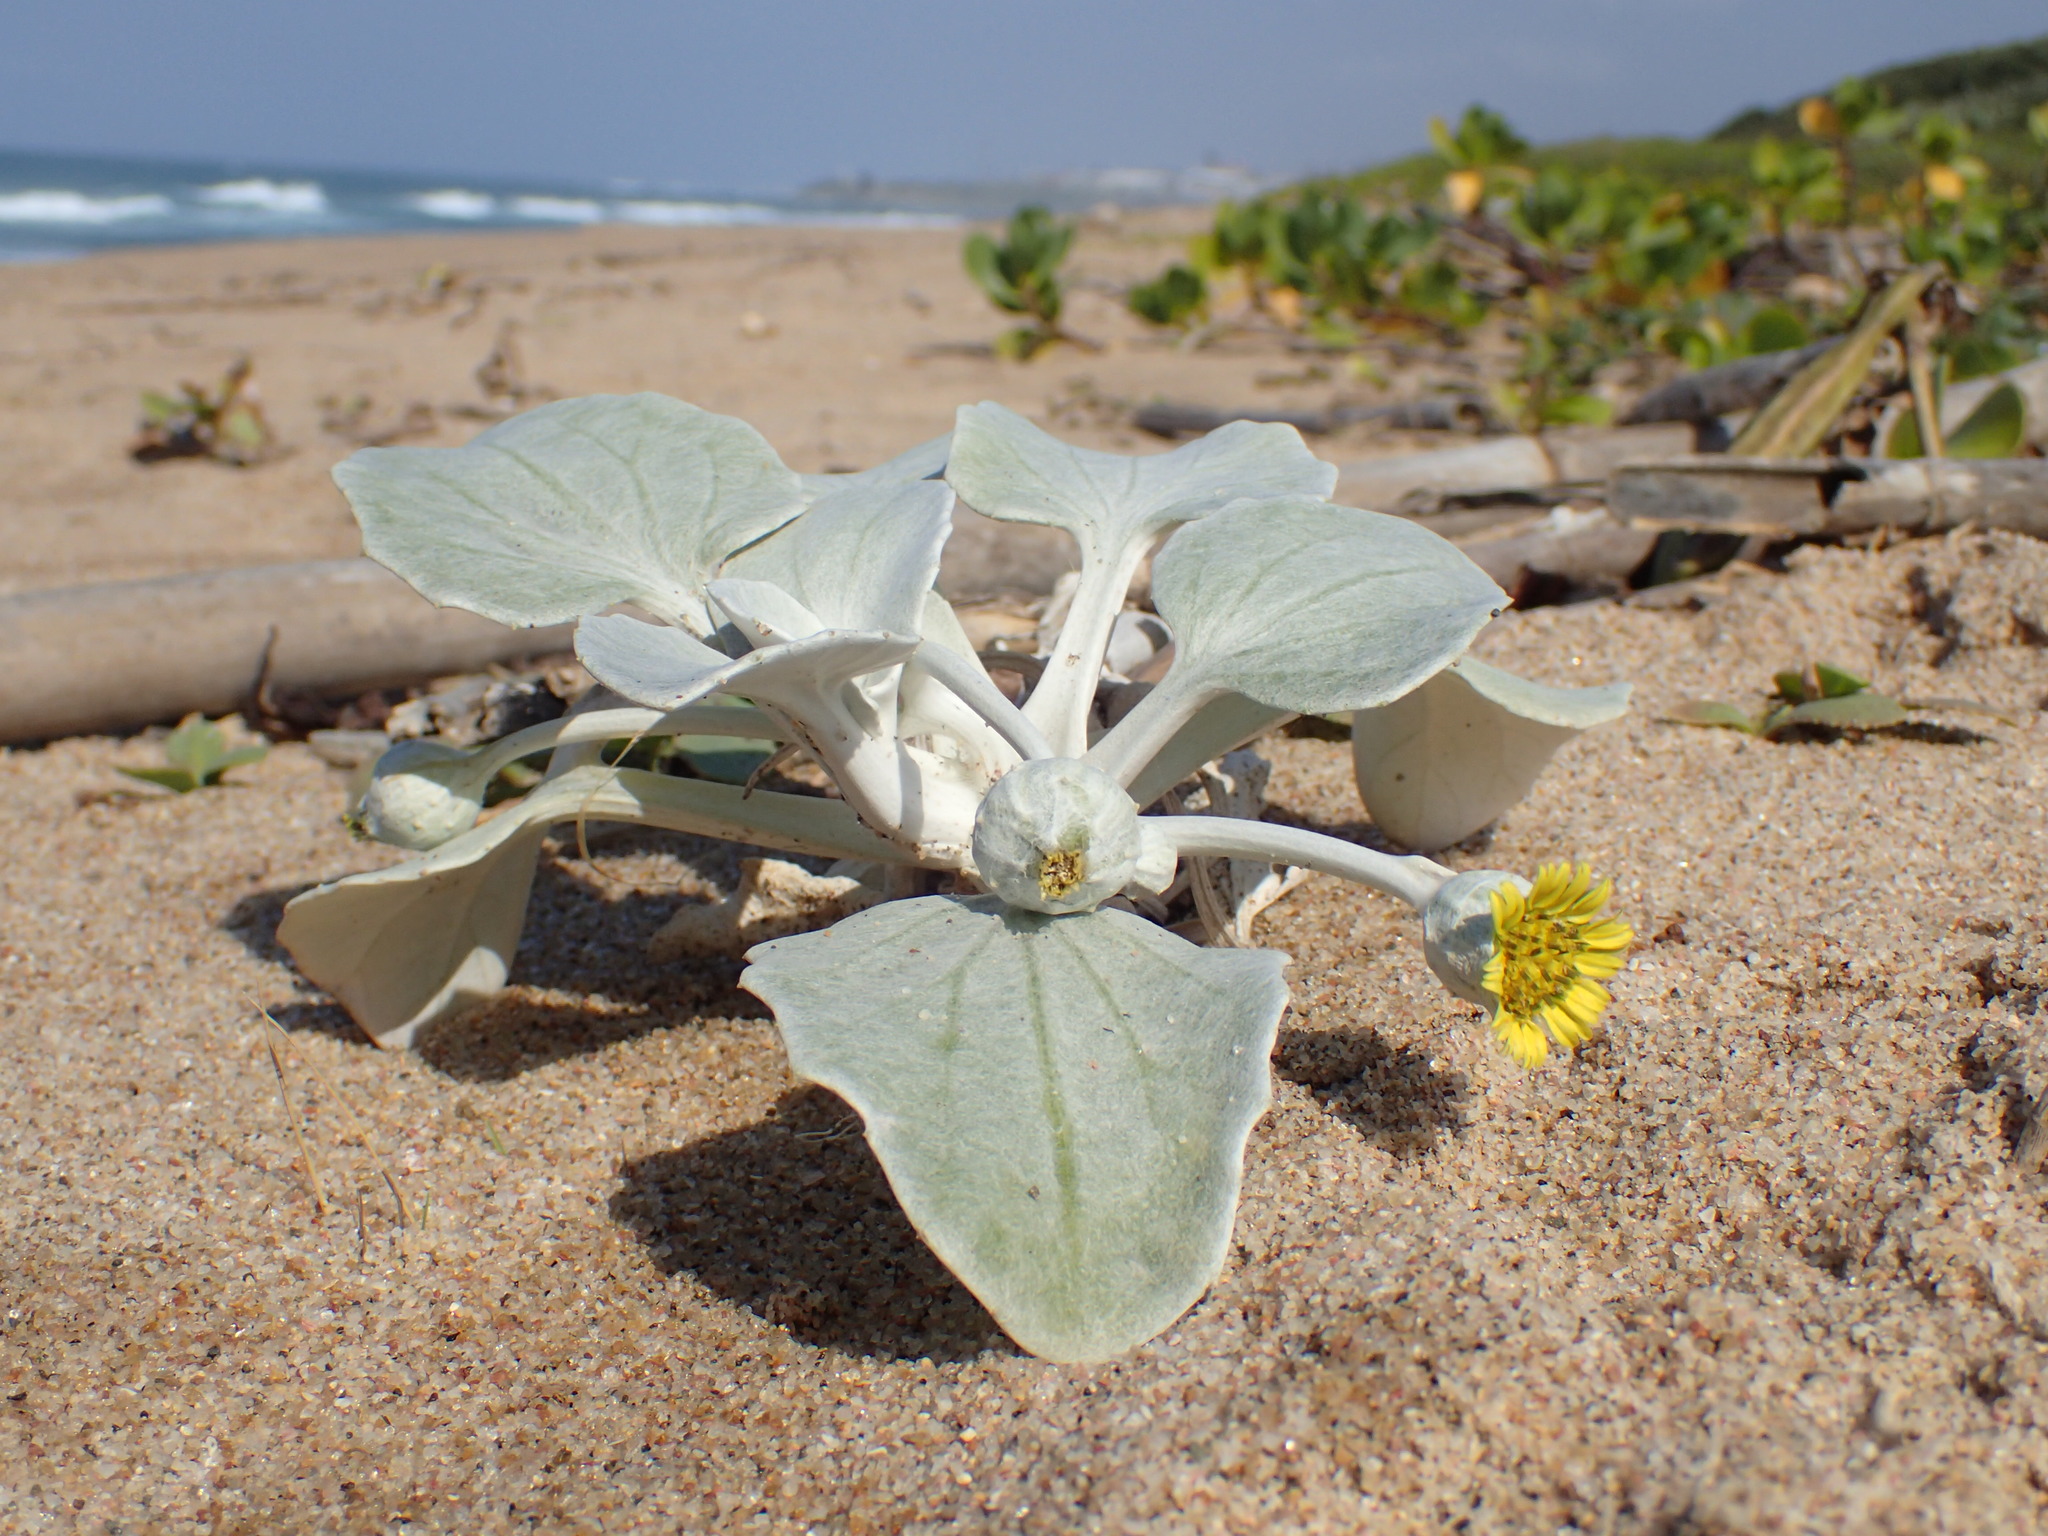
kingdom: Plantae
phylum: Tracheophyta
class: Magnoliopsida
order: Asterales
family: Asteraceae
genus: Arctotheca
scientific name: Arctotheca populifolia
